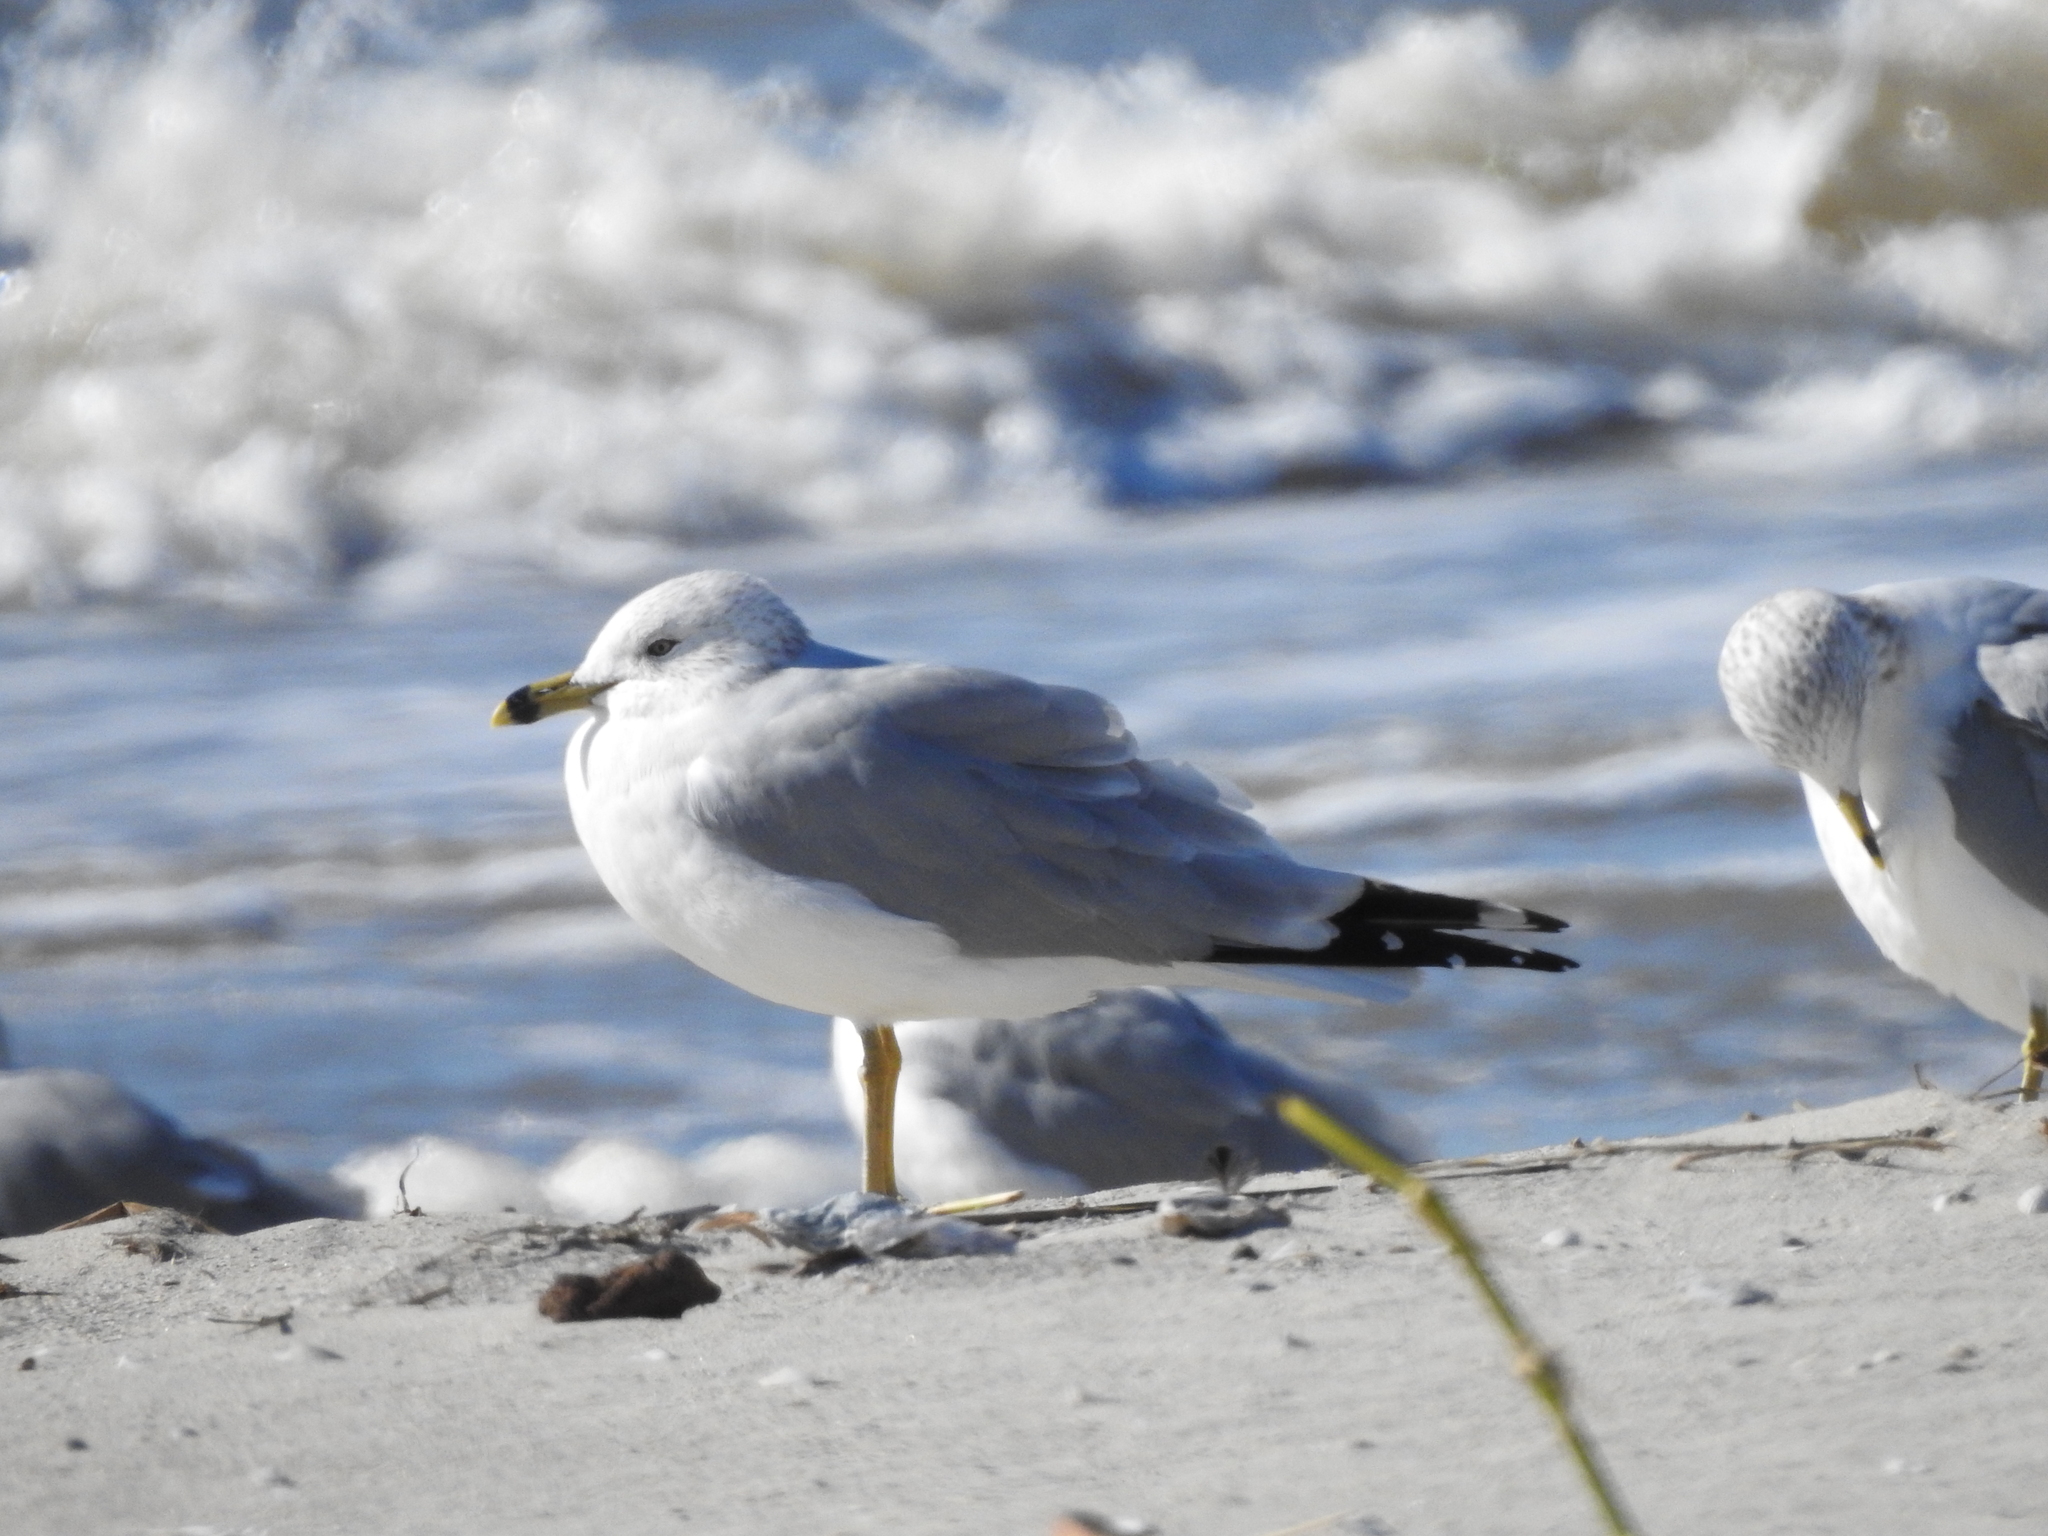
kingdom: Animalia
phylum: Chordata
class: Aves
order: Charadriiformes
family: Laridae
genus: Larus
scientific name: Larus delawarensis
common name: Ring-billed gull
